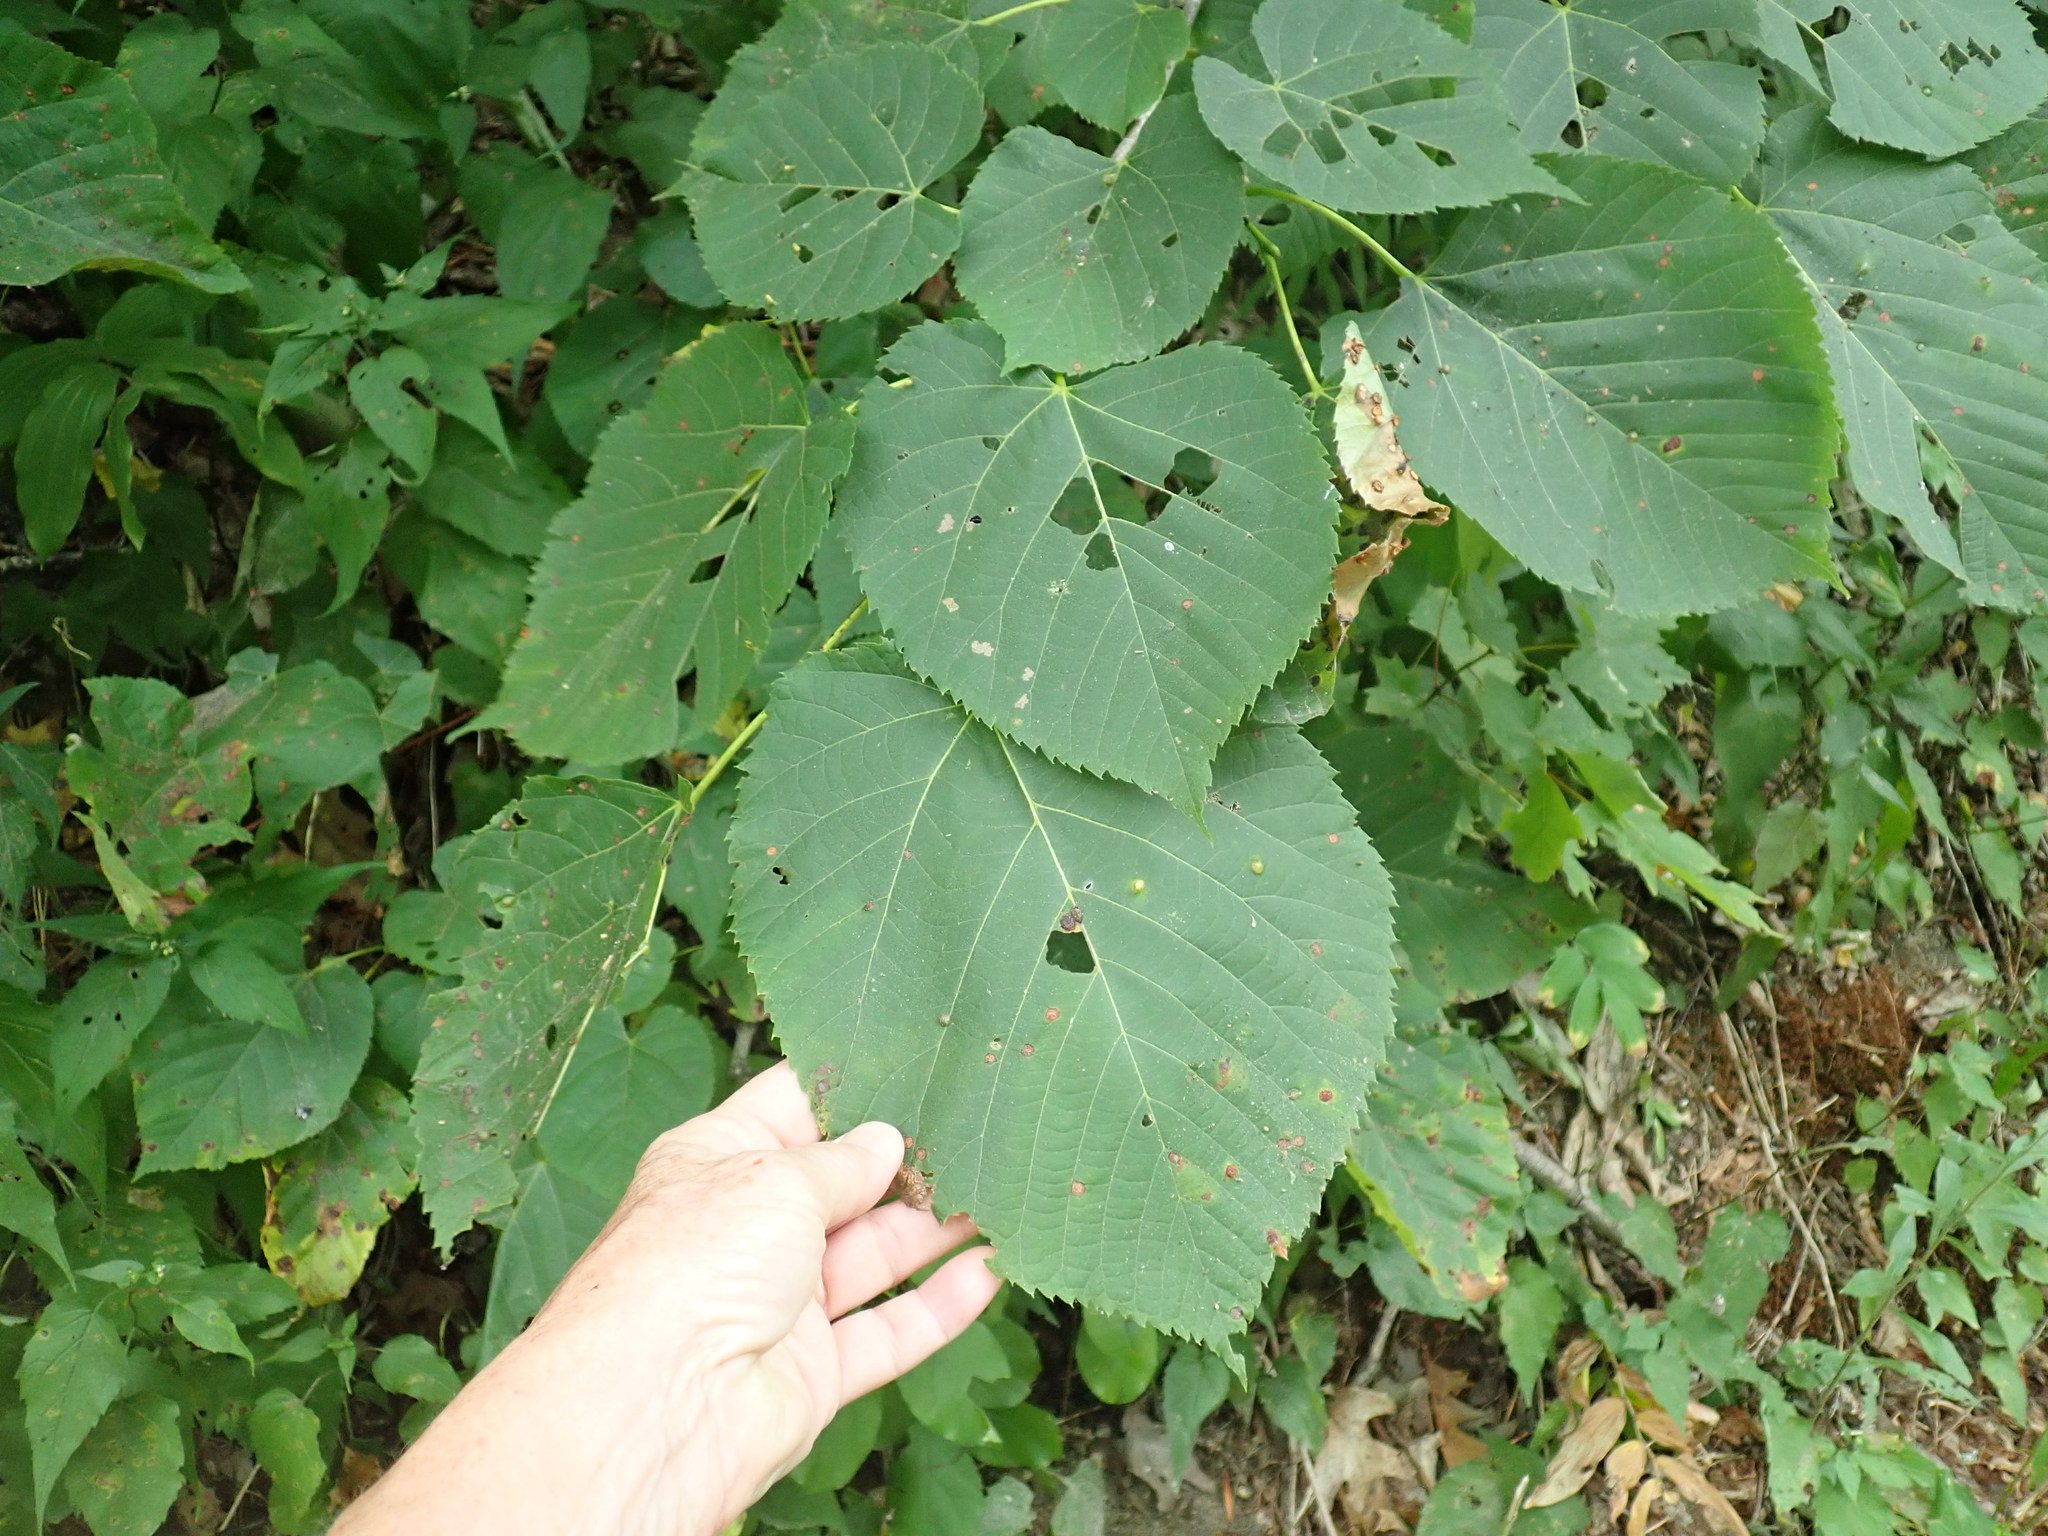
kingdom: Plantae
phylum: Tracheophyta
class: Magnoliopsida
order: Malvales
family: Malvaceae
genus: Tilia
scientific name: Tilia americana
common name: Basswood
